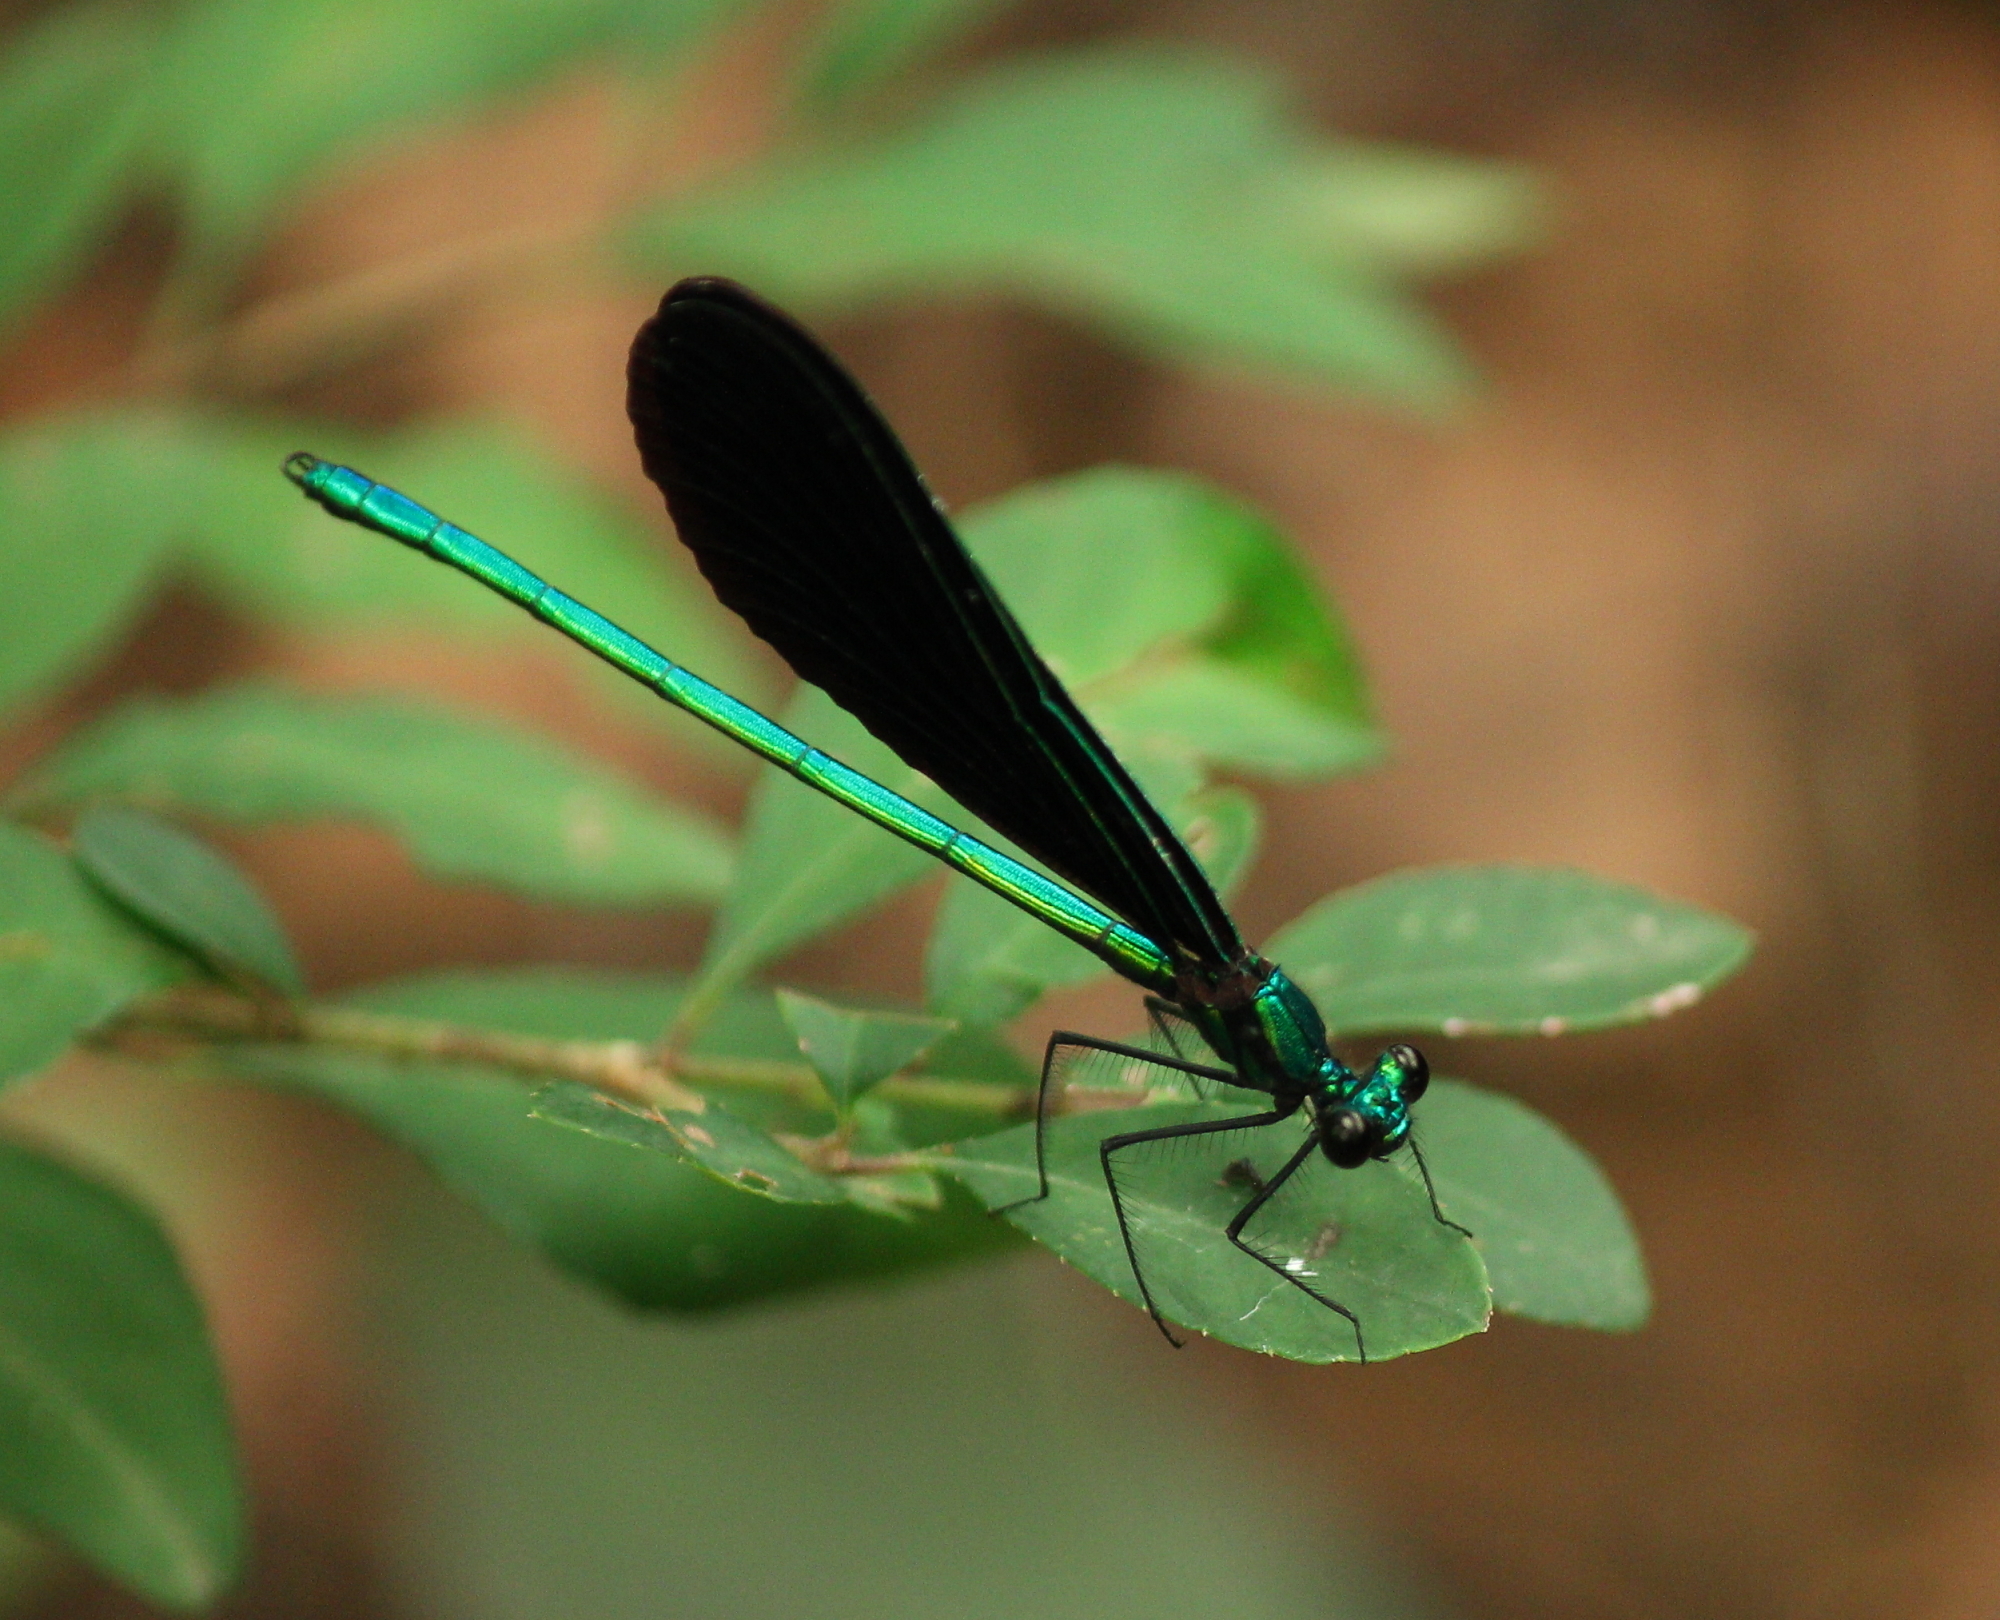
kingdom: Animalia
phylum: Arthropoda
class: Insecta
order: Odonata
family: Calopterygidae
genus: Calopteryx
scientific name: Calopteryx maculata
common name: Ebony jewelwing
